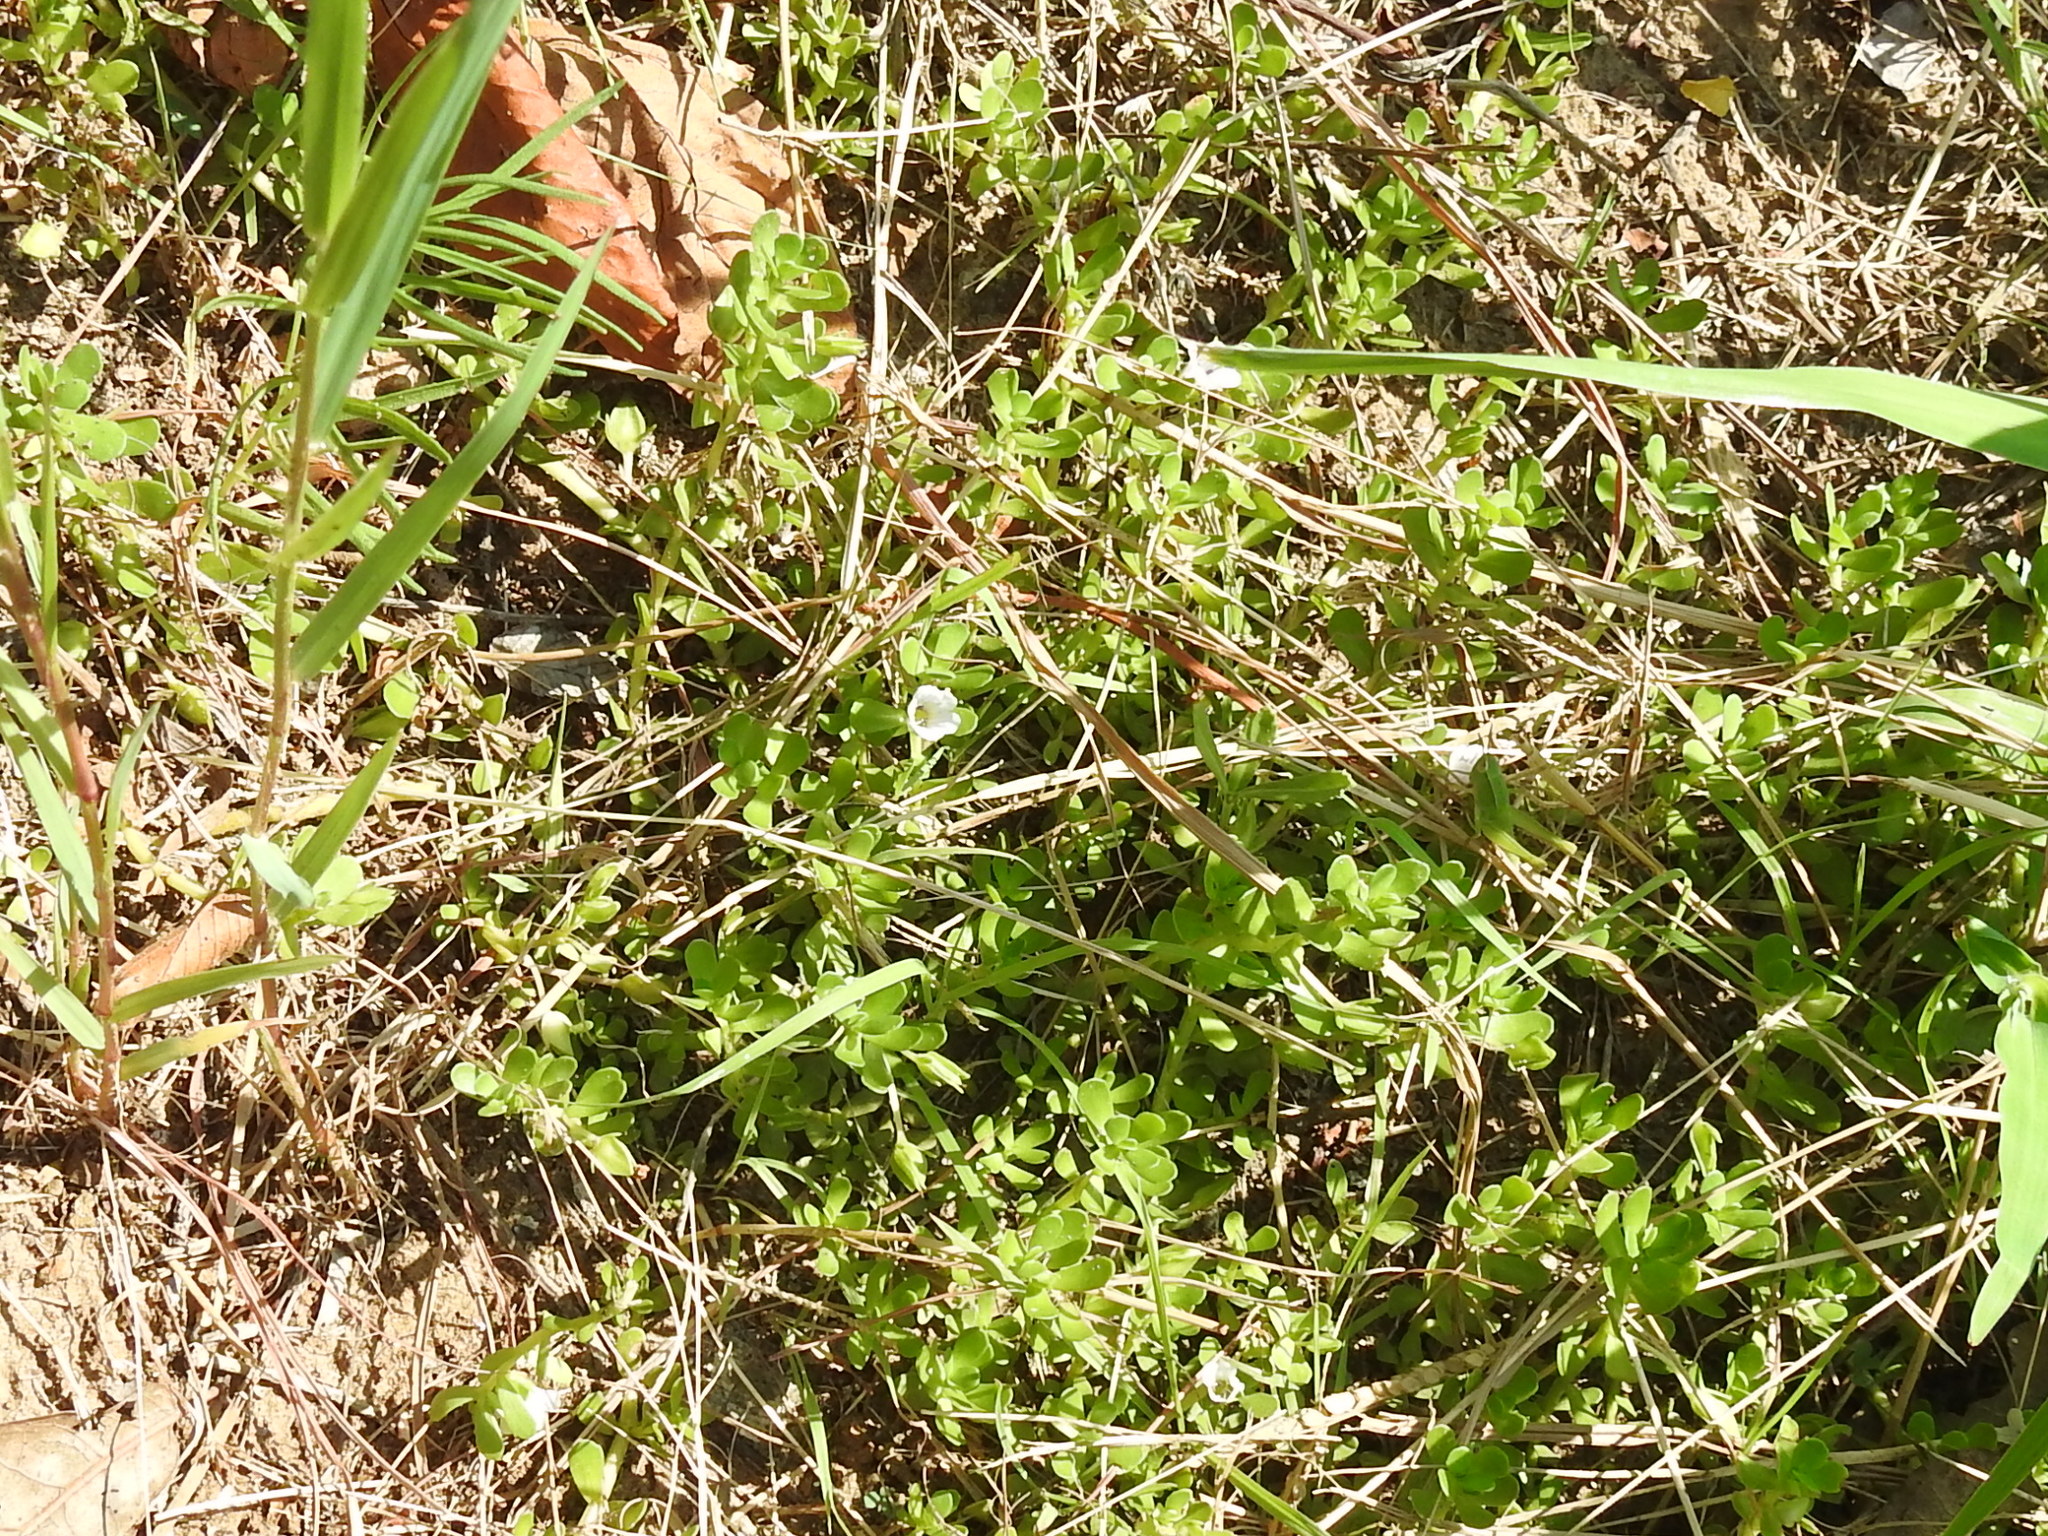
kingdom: Plantae
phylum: Tracheophyta
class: Magnoliopsida
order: Lamiales
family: Plantaginaceae
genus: Bacopa
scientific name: Bacopa monnieri
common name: Indian-pennywort
